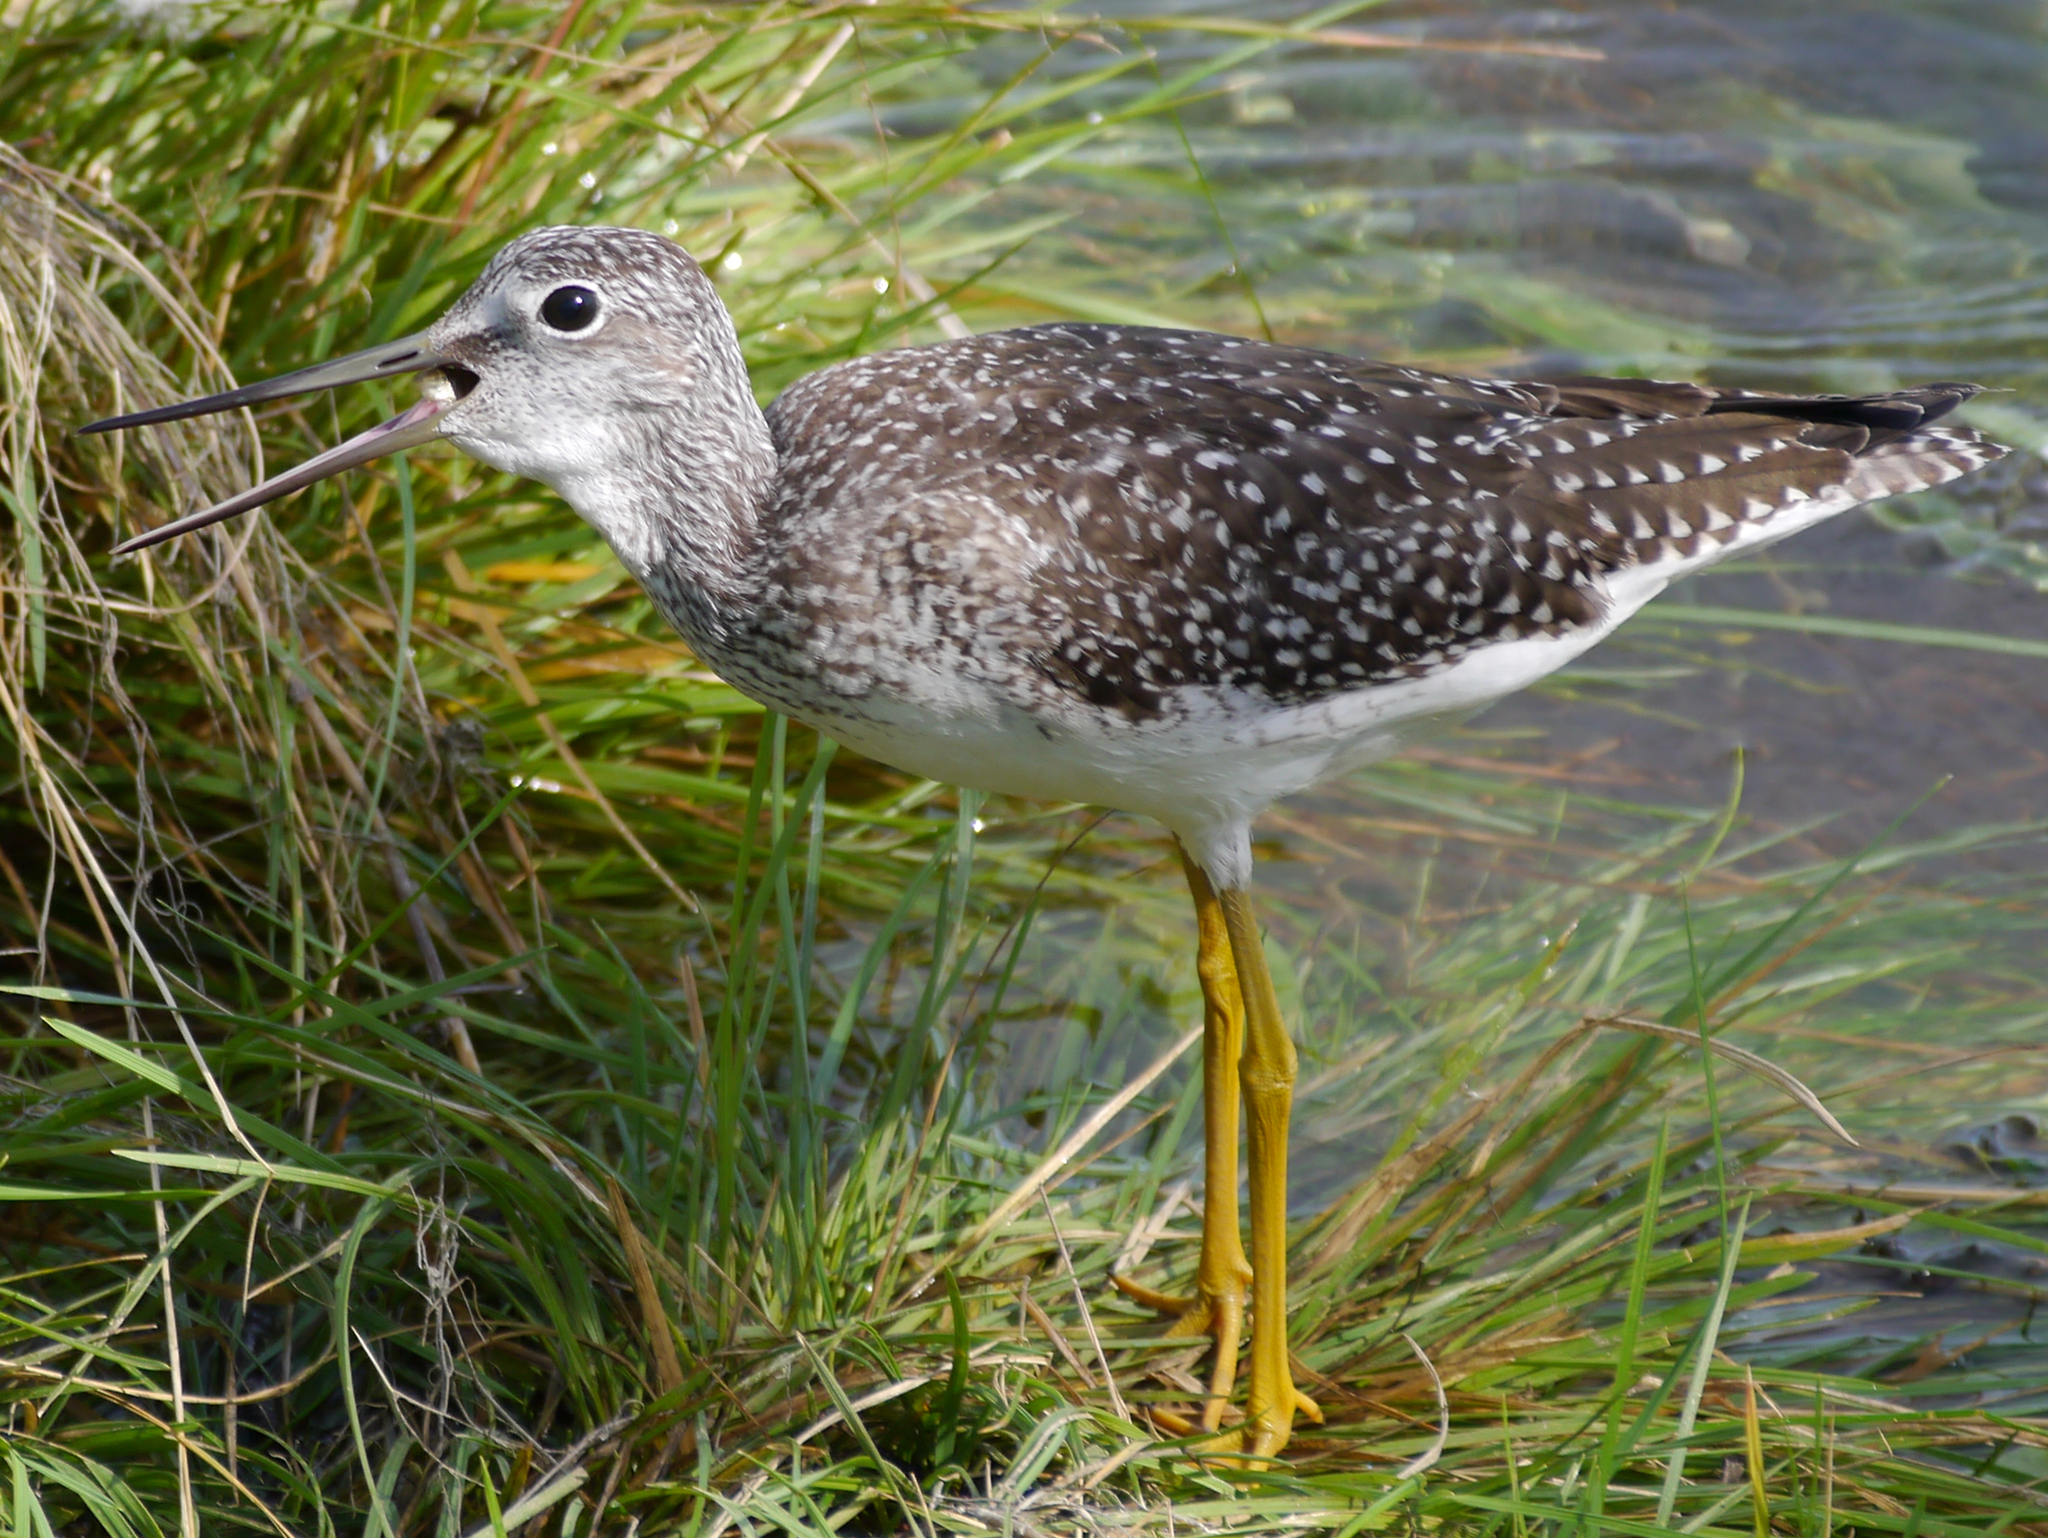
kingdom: Animalia
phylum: Chordata
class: Aves
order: Charadriiformes
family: Scolopacidae
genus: Tringa
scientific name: Tringa melanoleuca
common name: Greater yellowlegs
